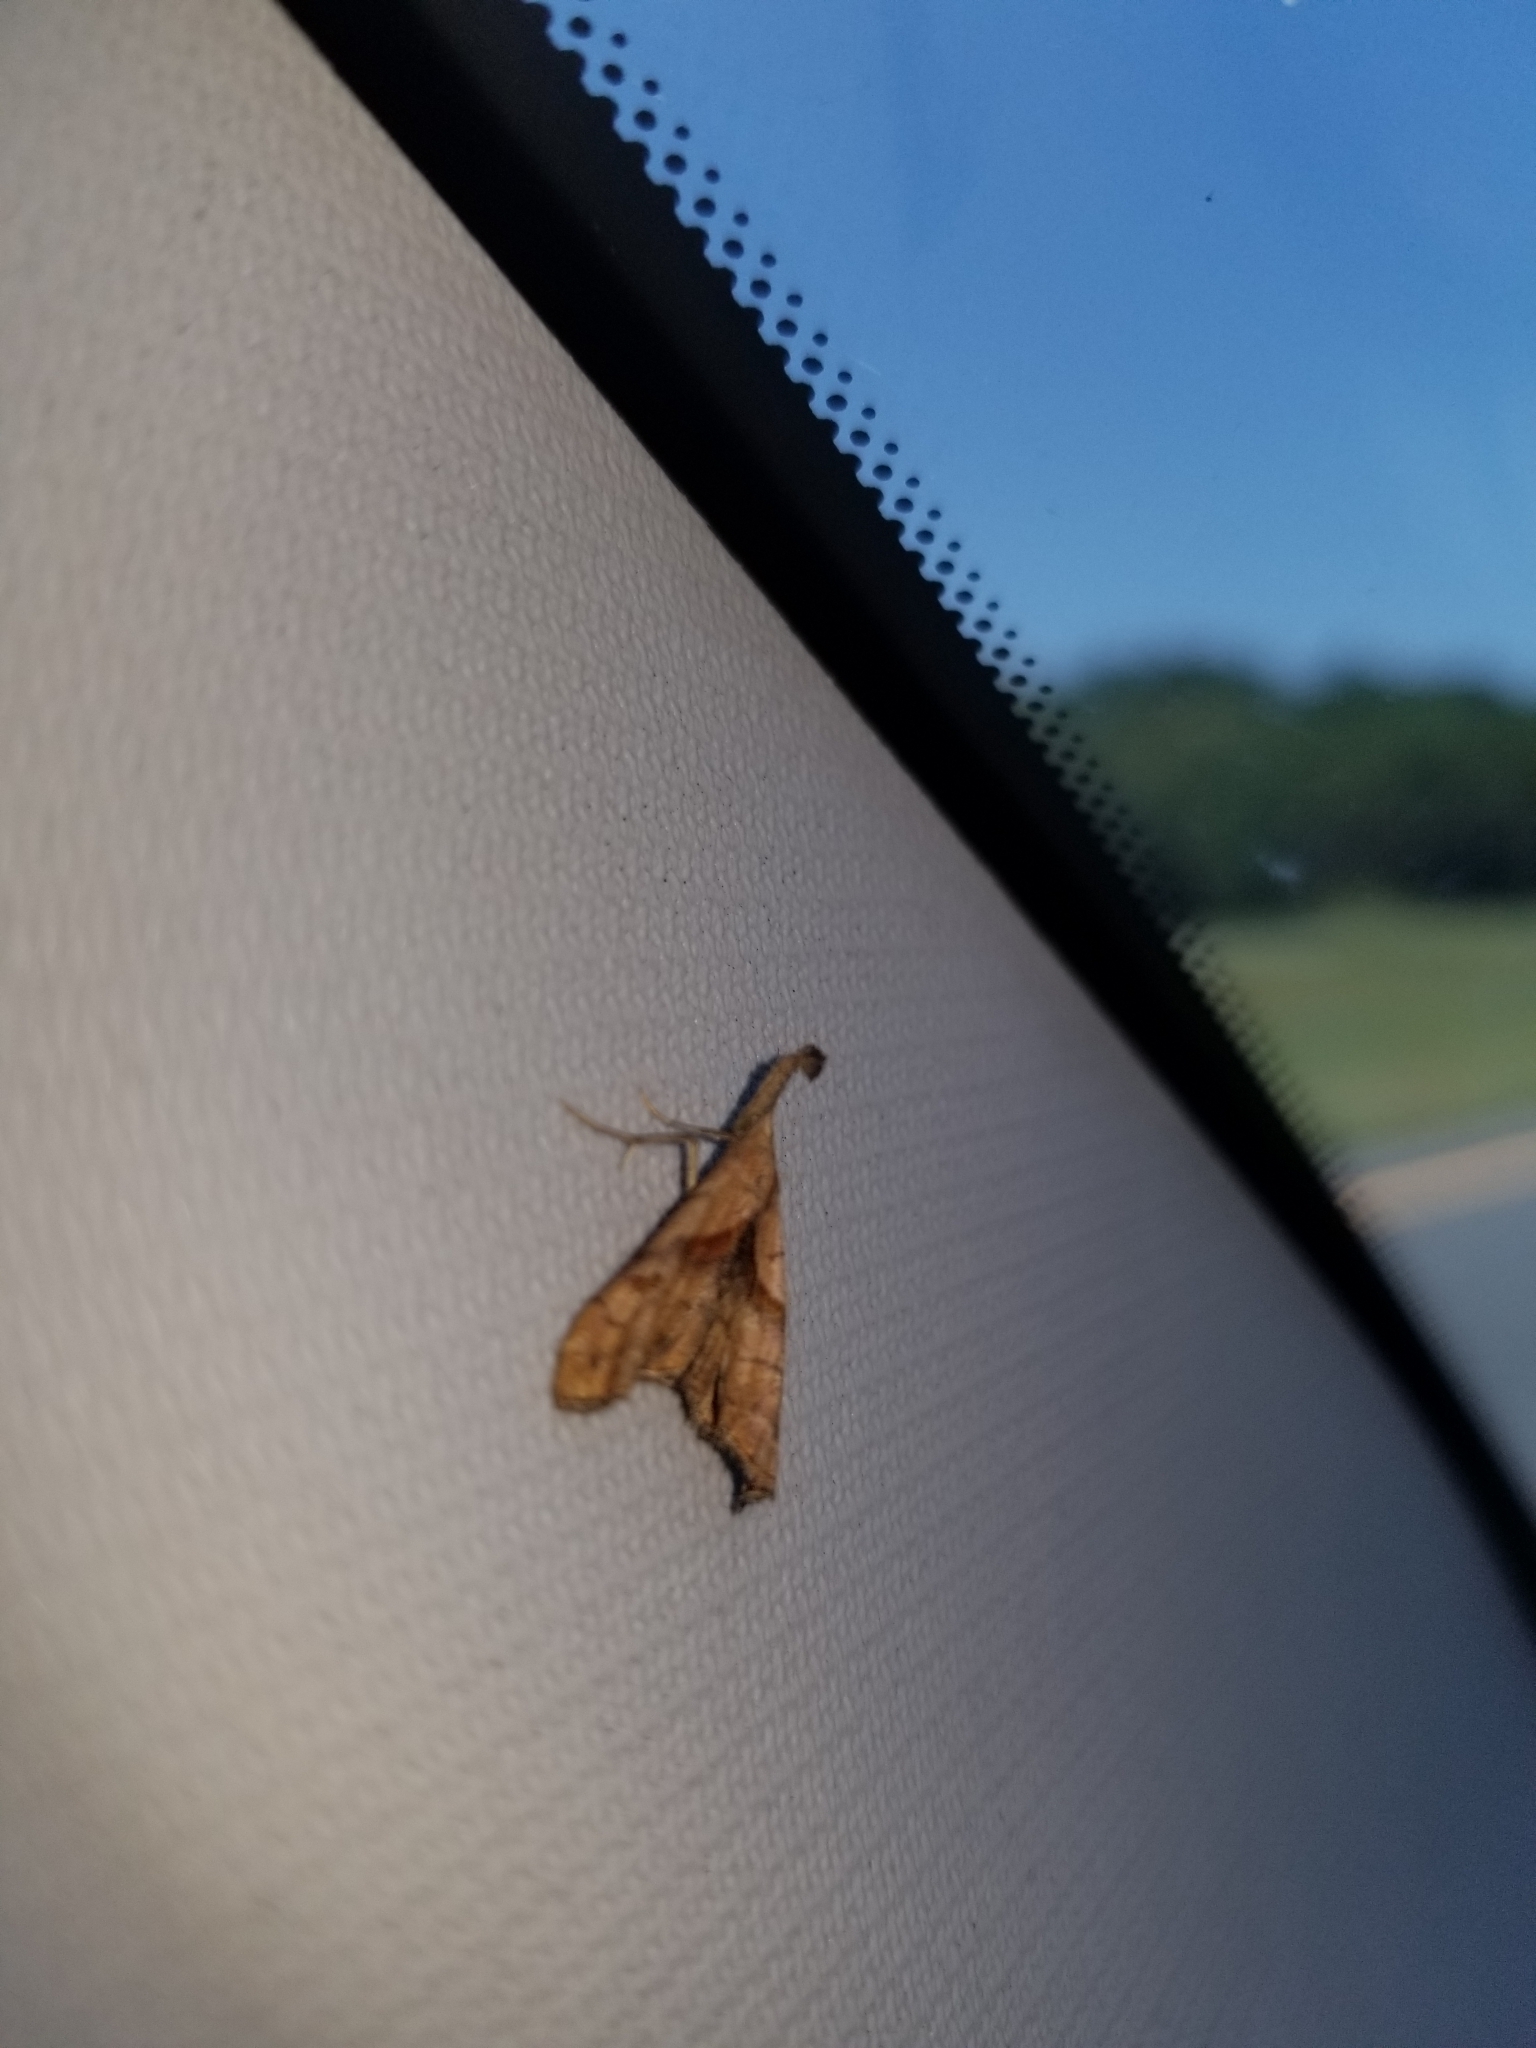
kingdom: Animalia
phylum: Arthropoda
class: Insecta
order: Lepidoptera
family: Erebidae
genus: Palthis
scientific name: Palthis angulalis
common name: Dark-spotted palthis moth
